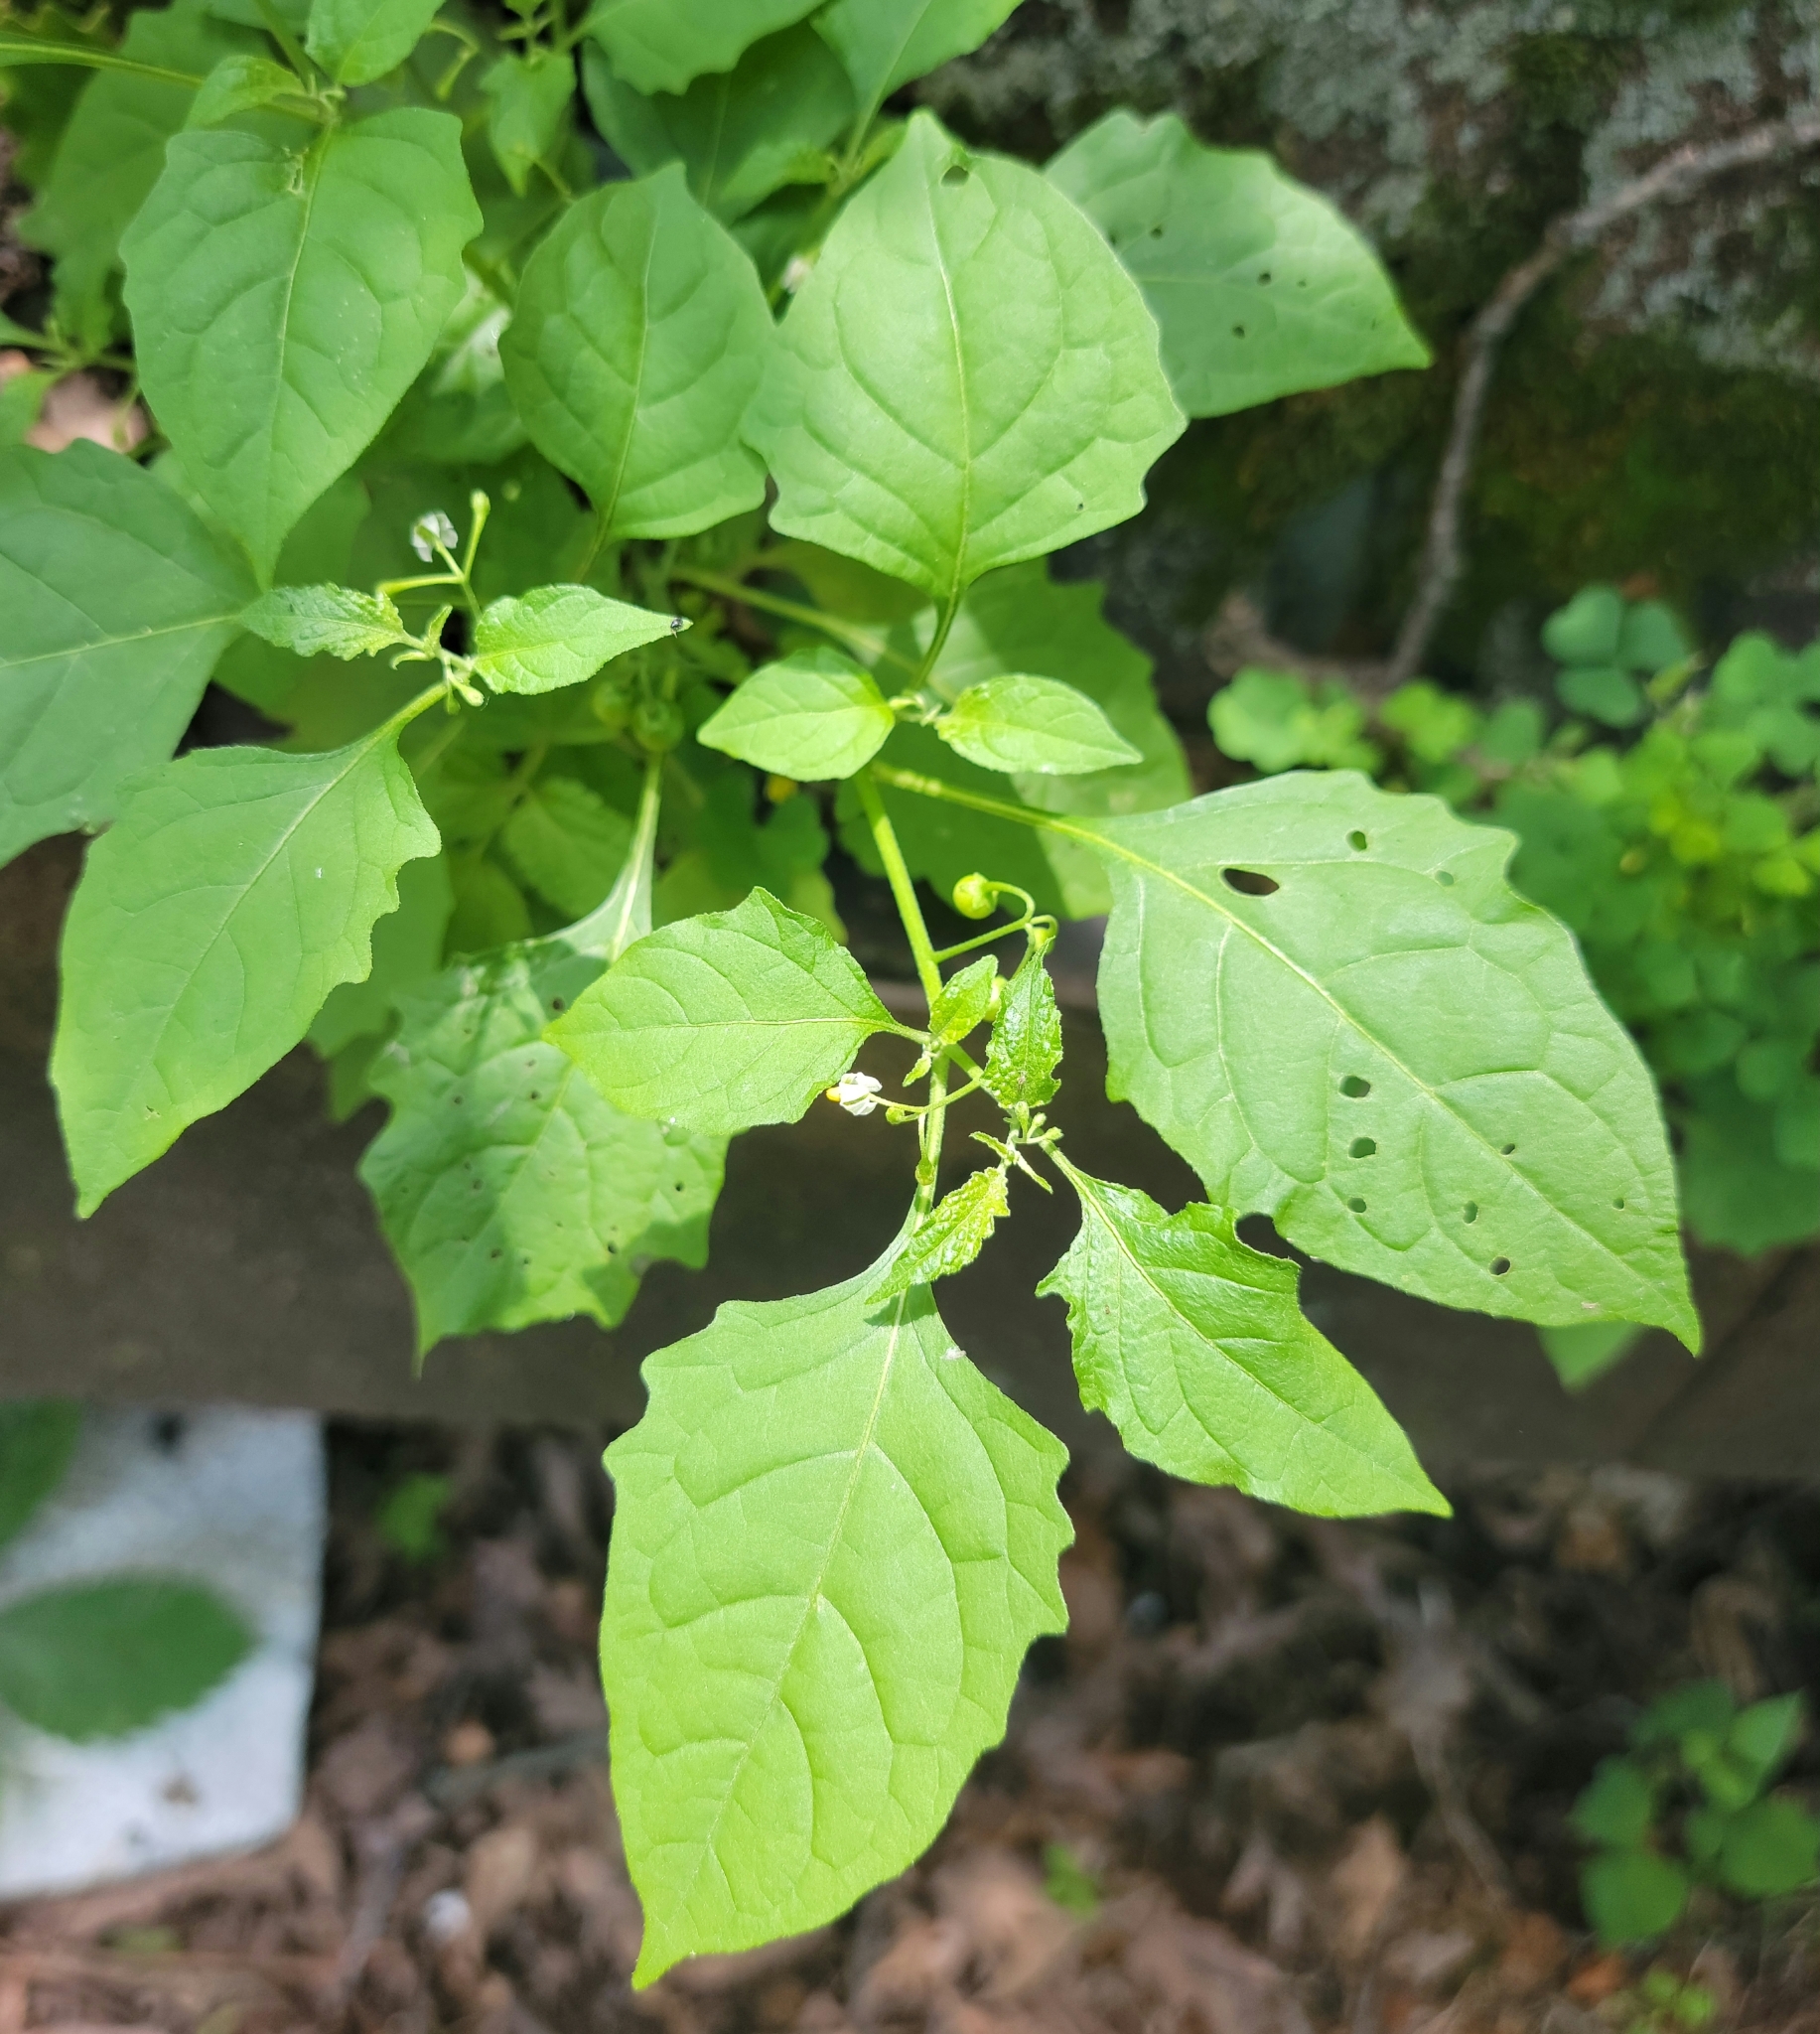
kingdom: Plantae
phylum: Tracheophyta
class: Magnoliopsida
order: Solanales
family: Solanaceae
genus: Solanum
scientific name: Solanum emulans
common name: Eastern black nightshade
